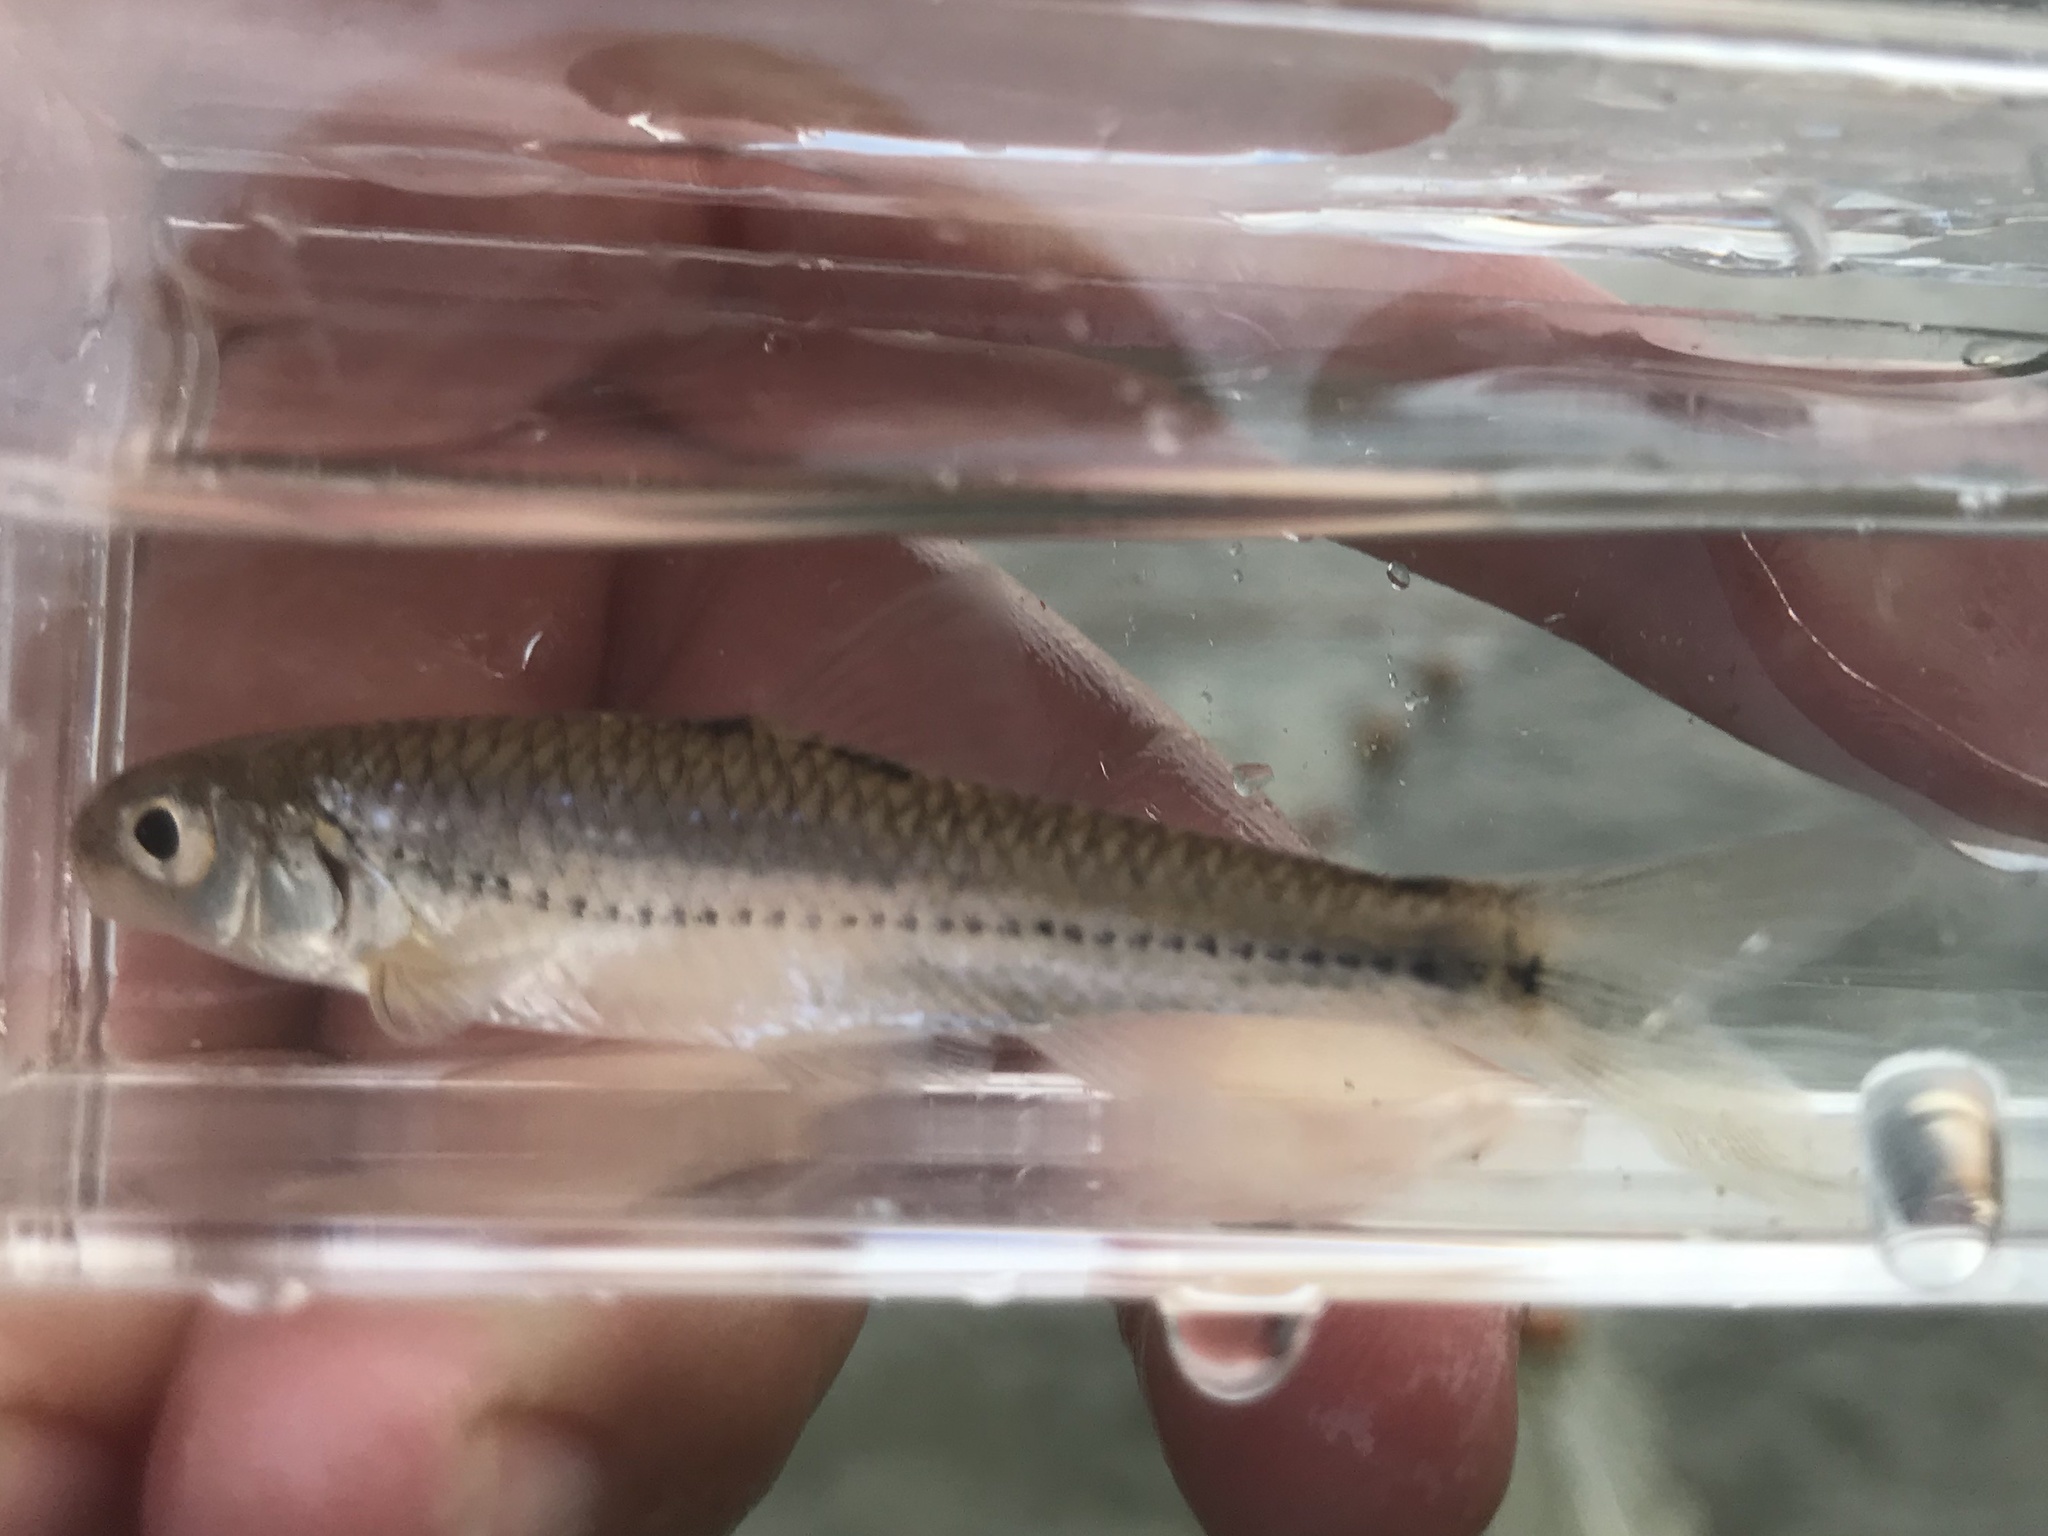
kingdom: Animalia
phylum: Chordata
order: Cypriniformes
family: Cyprinidae
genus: Notropis
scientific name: Notropis
